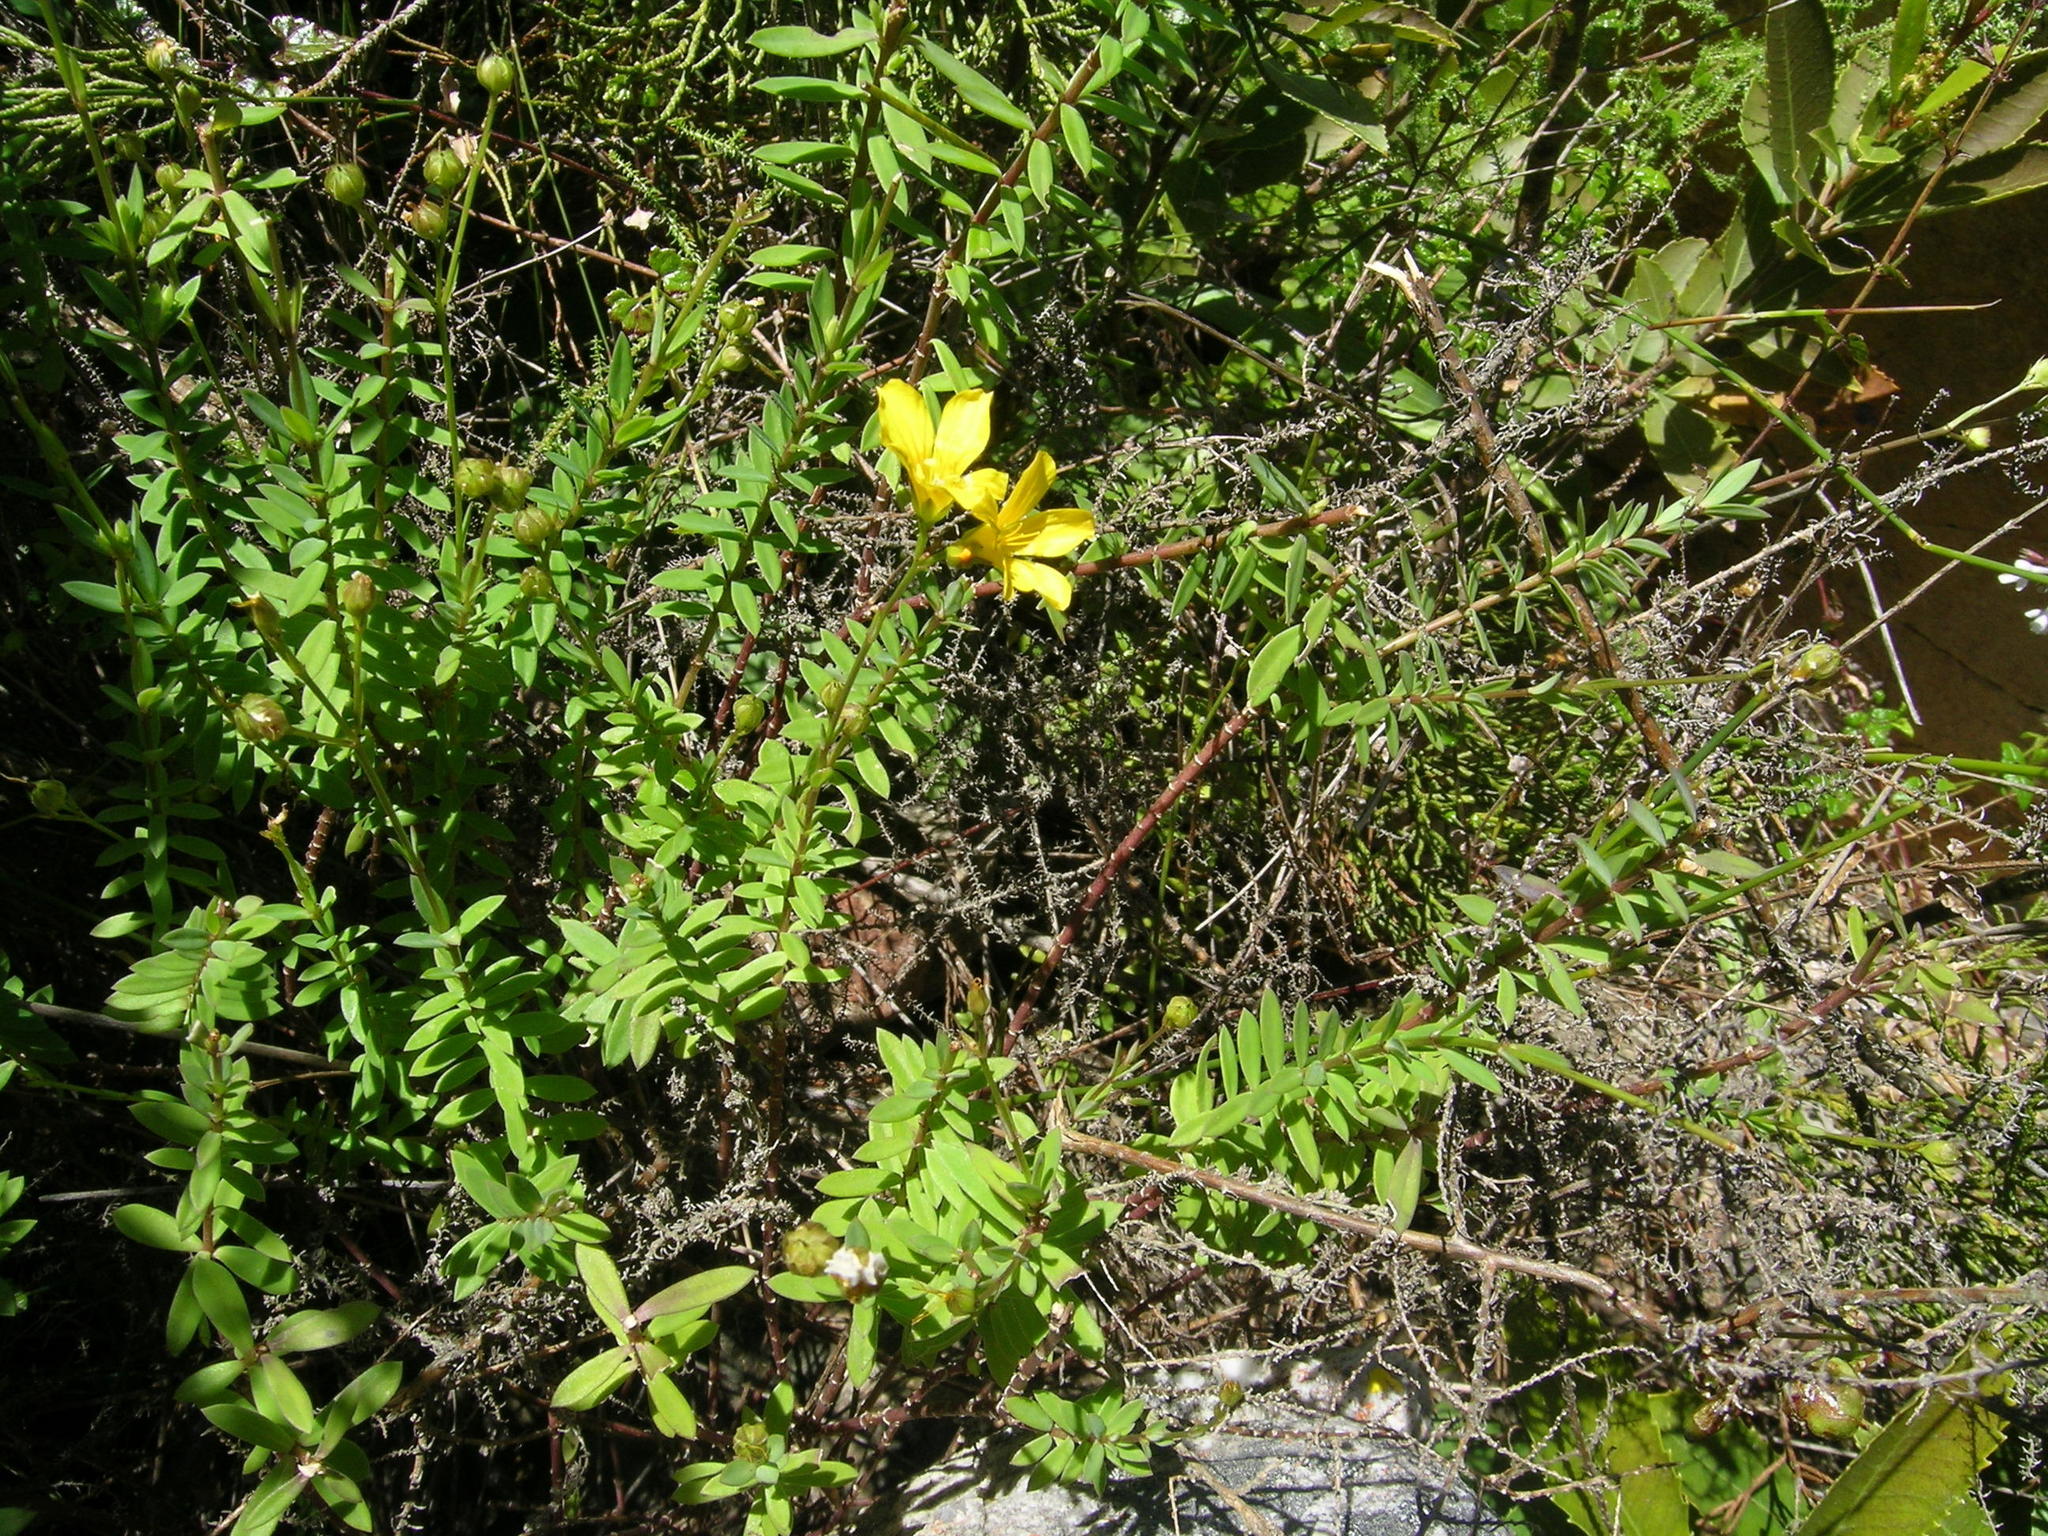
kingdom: Plantae
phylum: Tracheophyta
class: Magnoliopsida
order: Malpighiales
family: Linaceae
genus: Linum
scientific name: Linum quadrifolium
